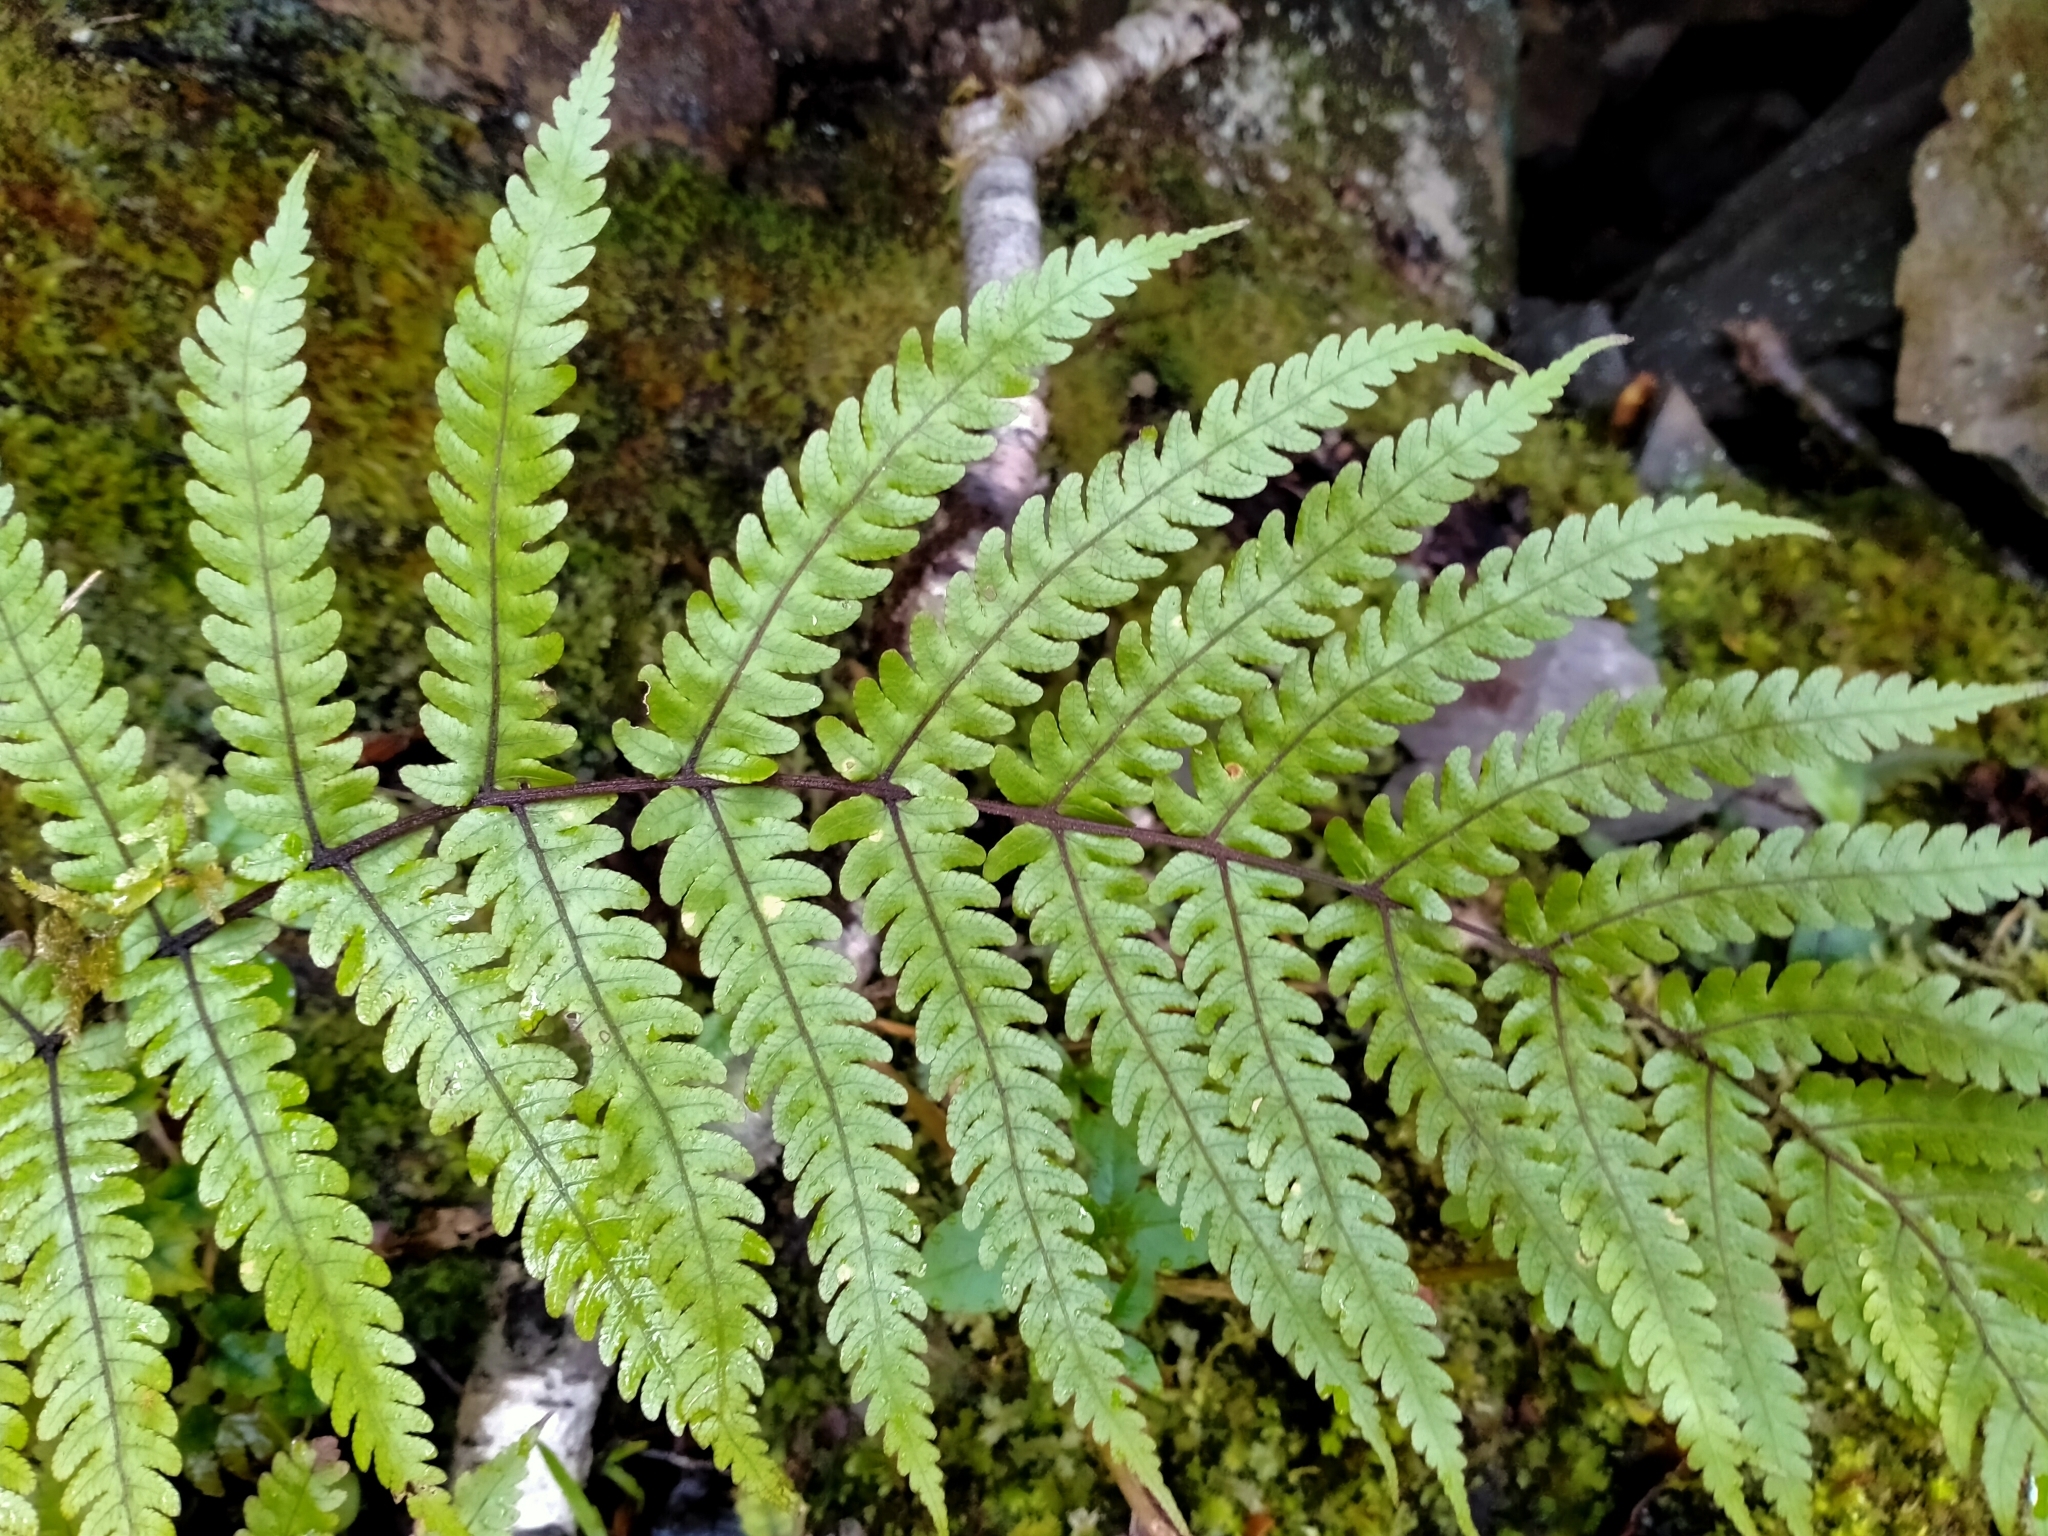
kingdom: Plantae
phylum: Tracheophyta
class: Polypodiopsida
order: Polypodiales
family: Thelypteridaceae
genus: Pakau
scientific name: Pakau pennigera
